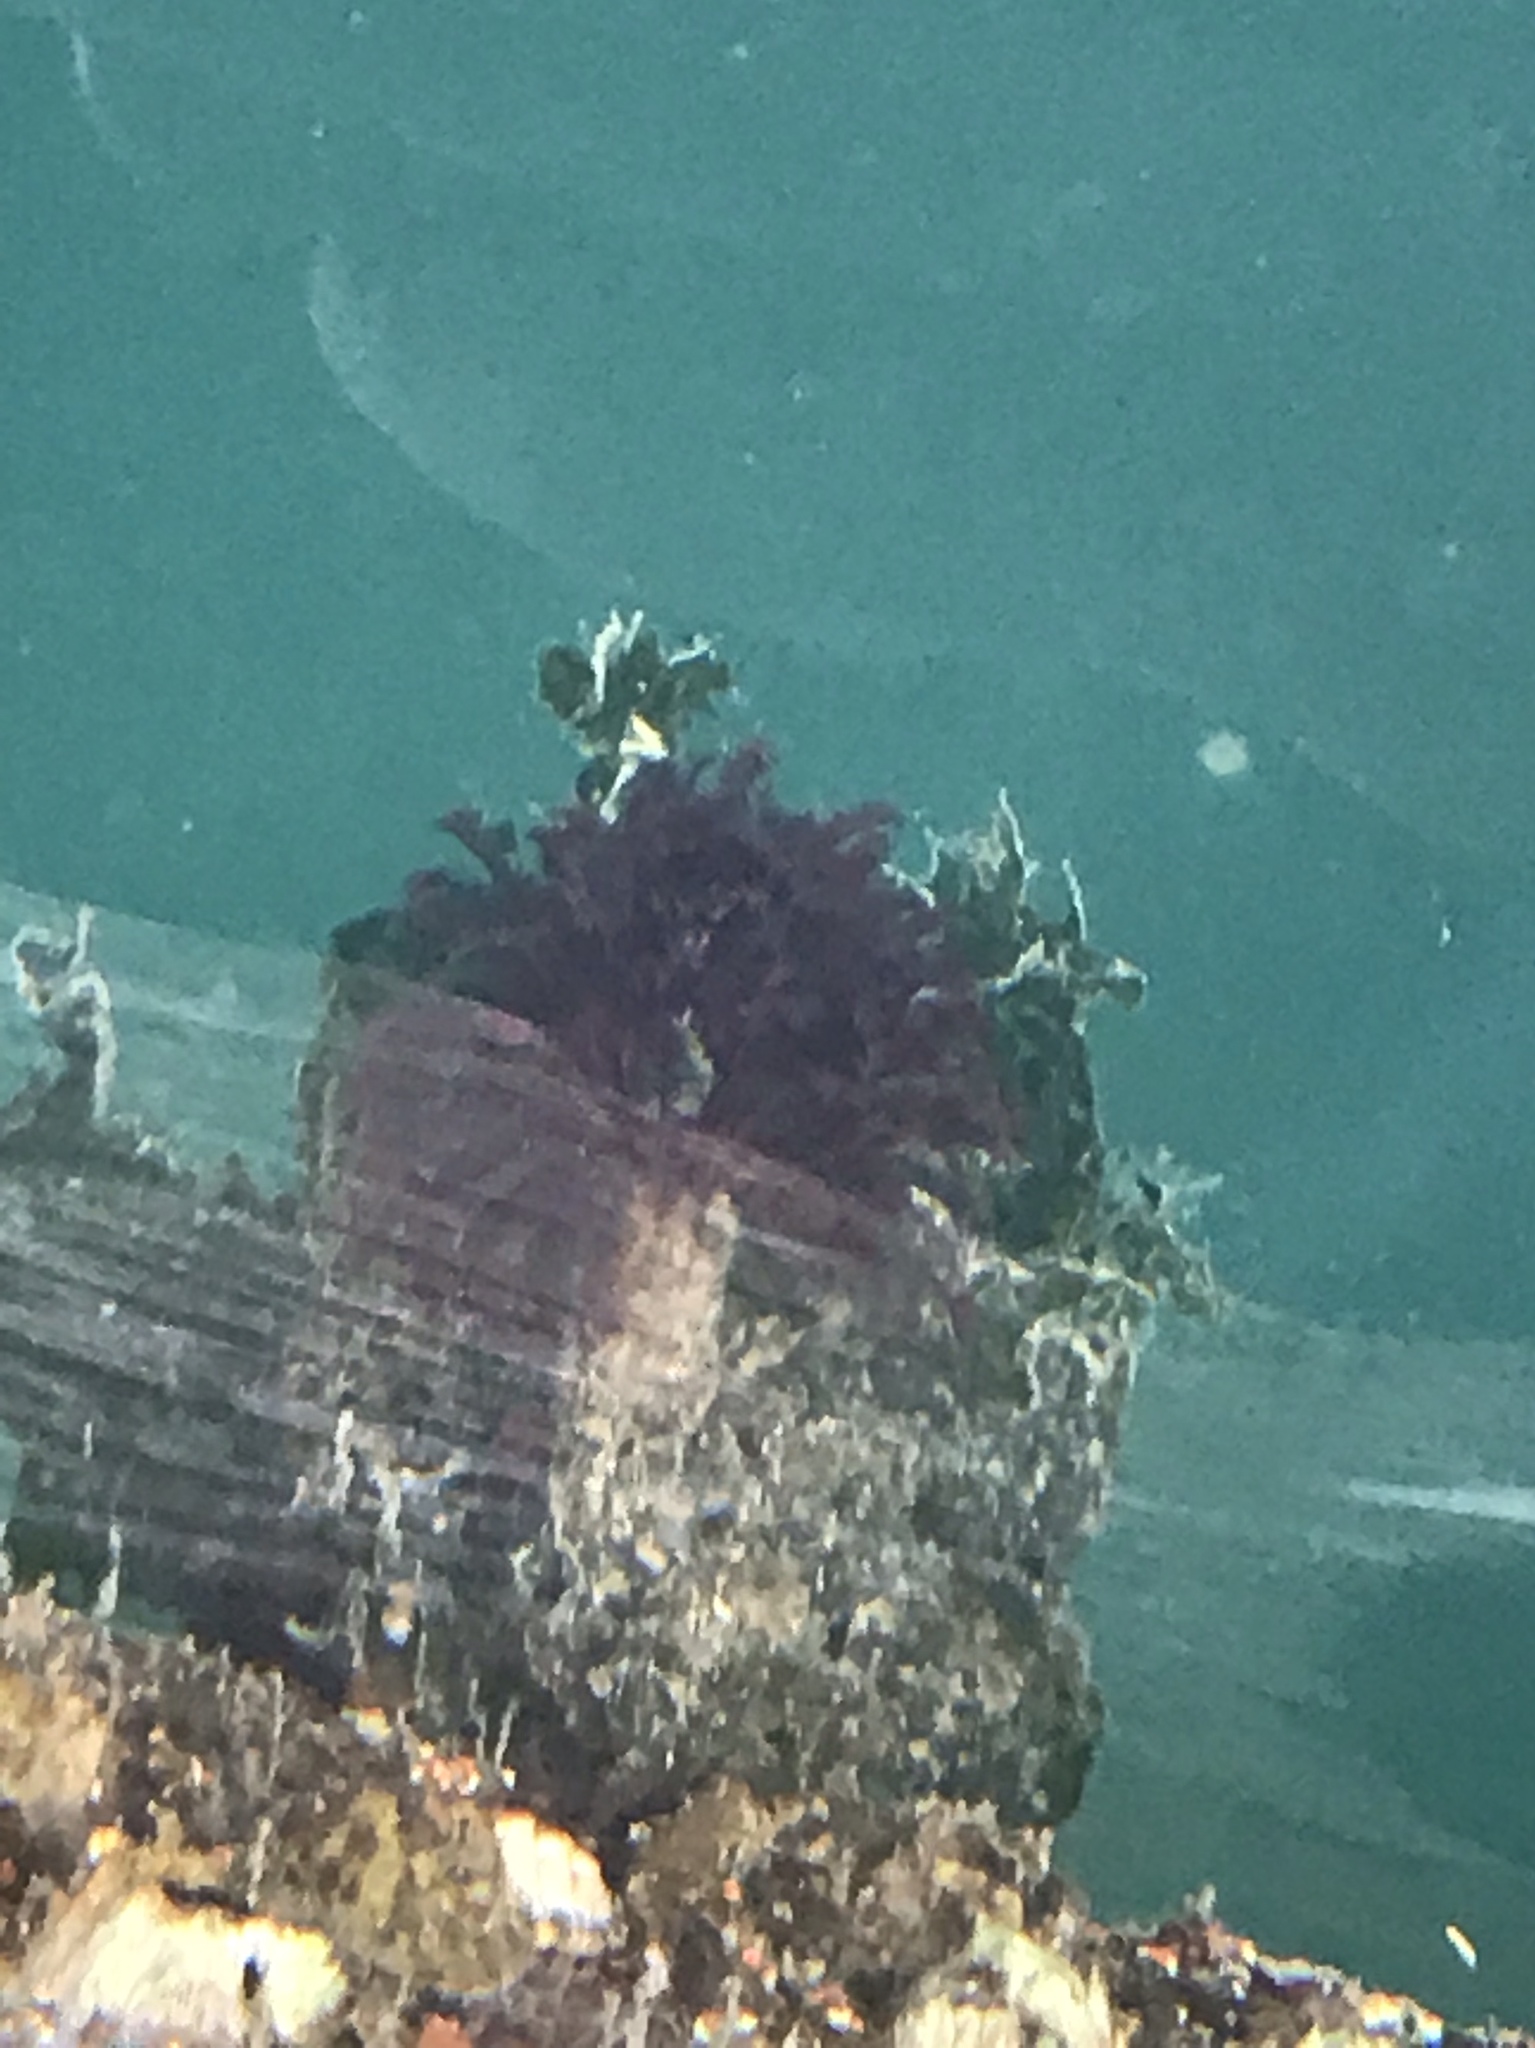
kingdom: Animalia
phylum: Annelida
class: Polychaeta
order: Sabellida
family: Sabellidae
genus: Eudistylia
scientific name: Eudistylia vancouveri
